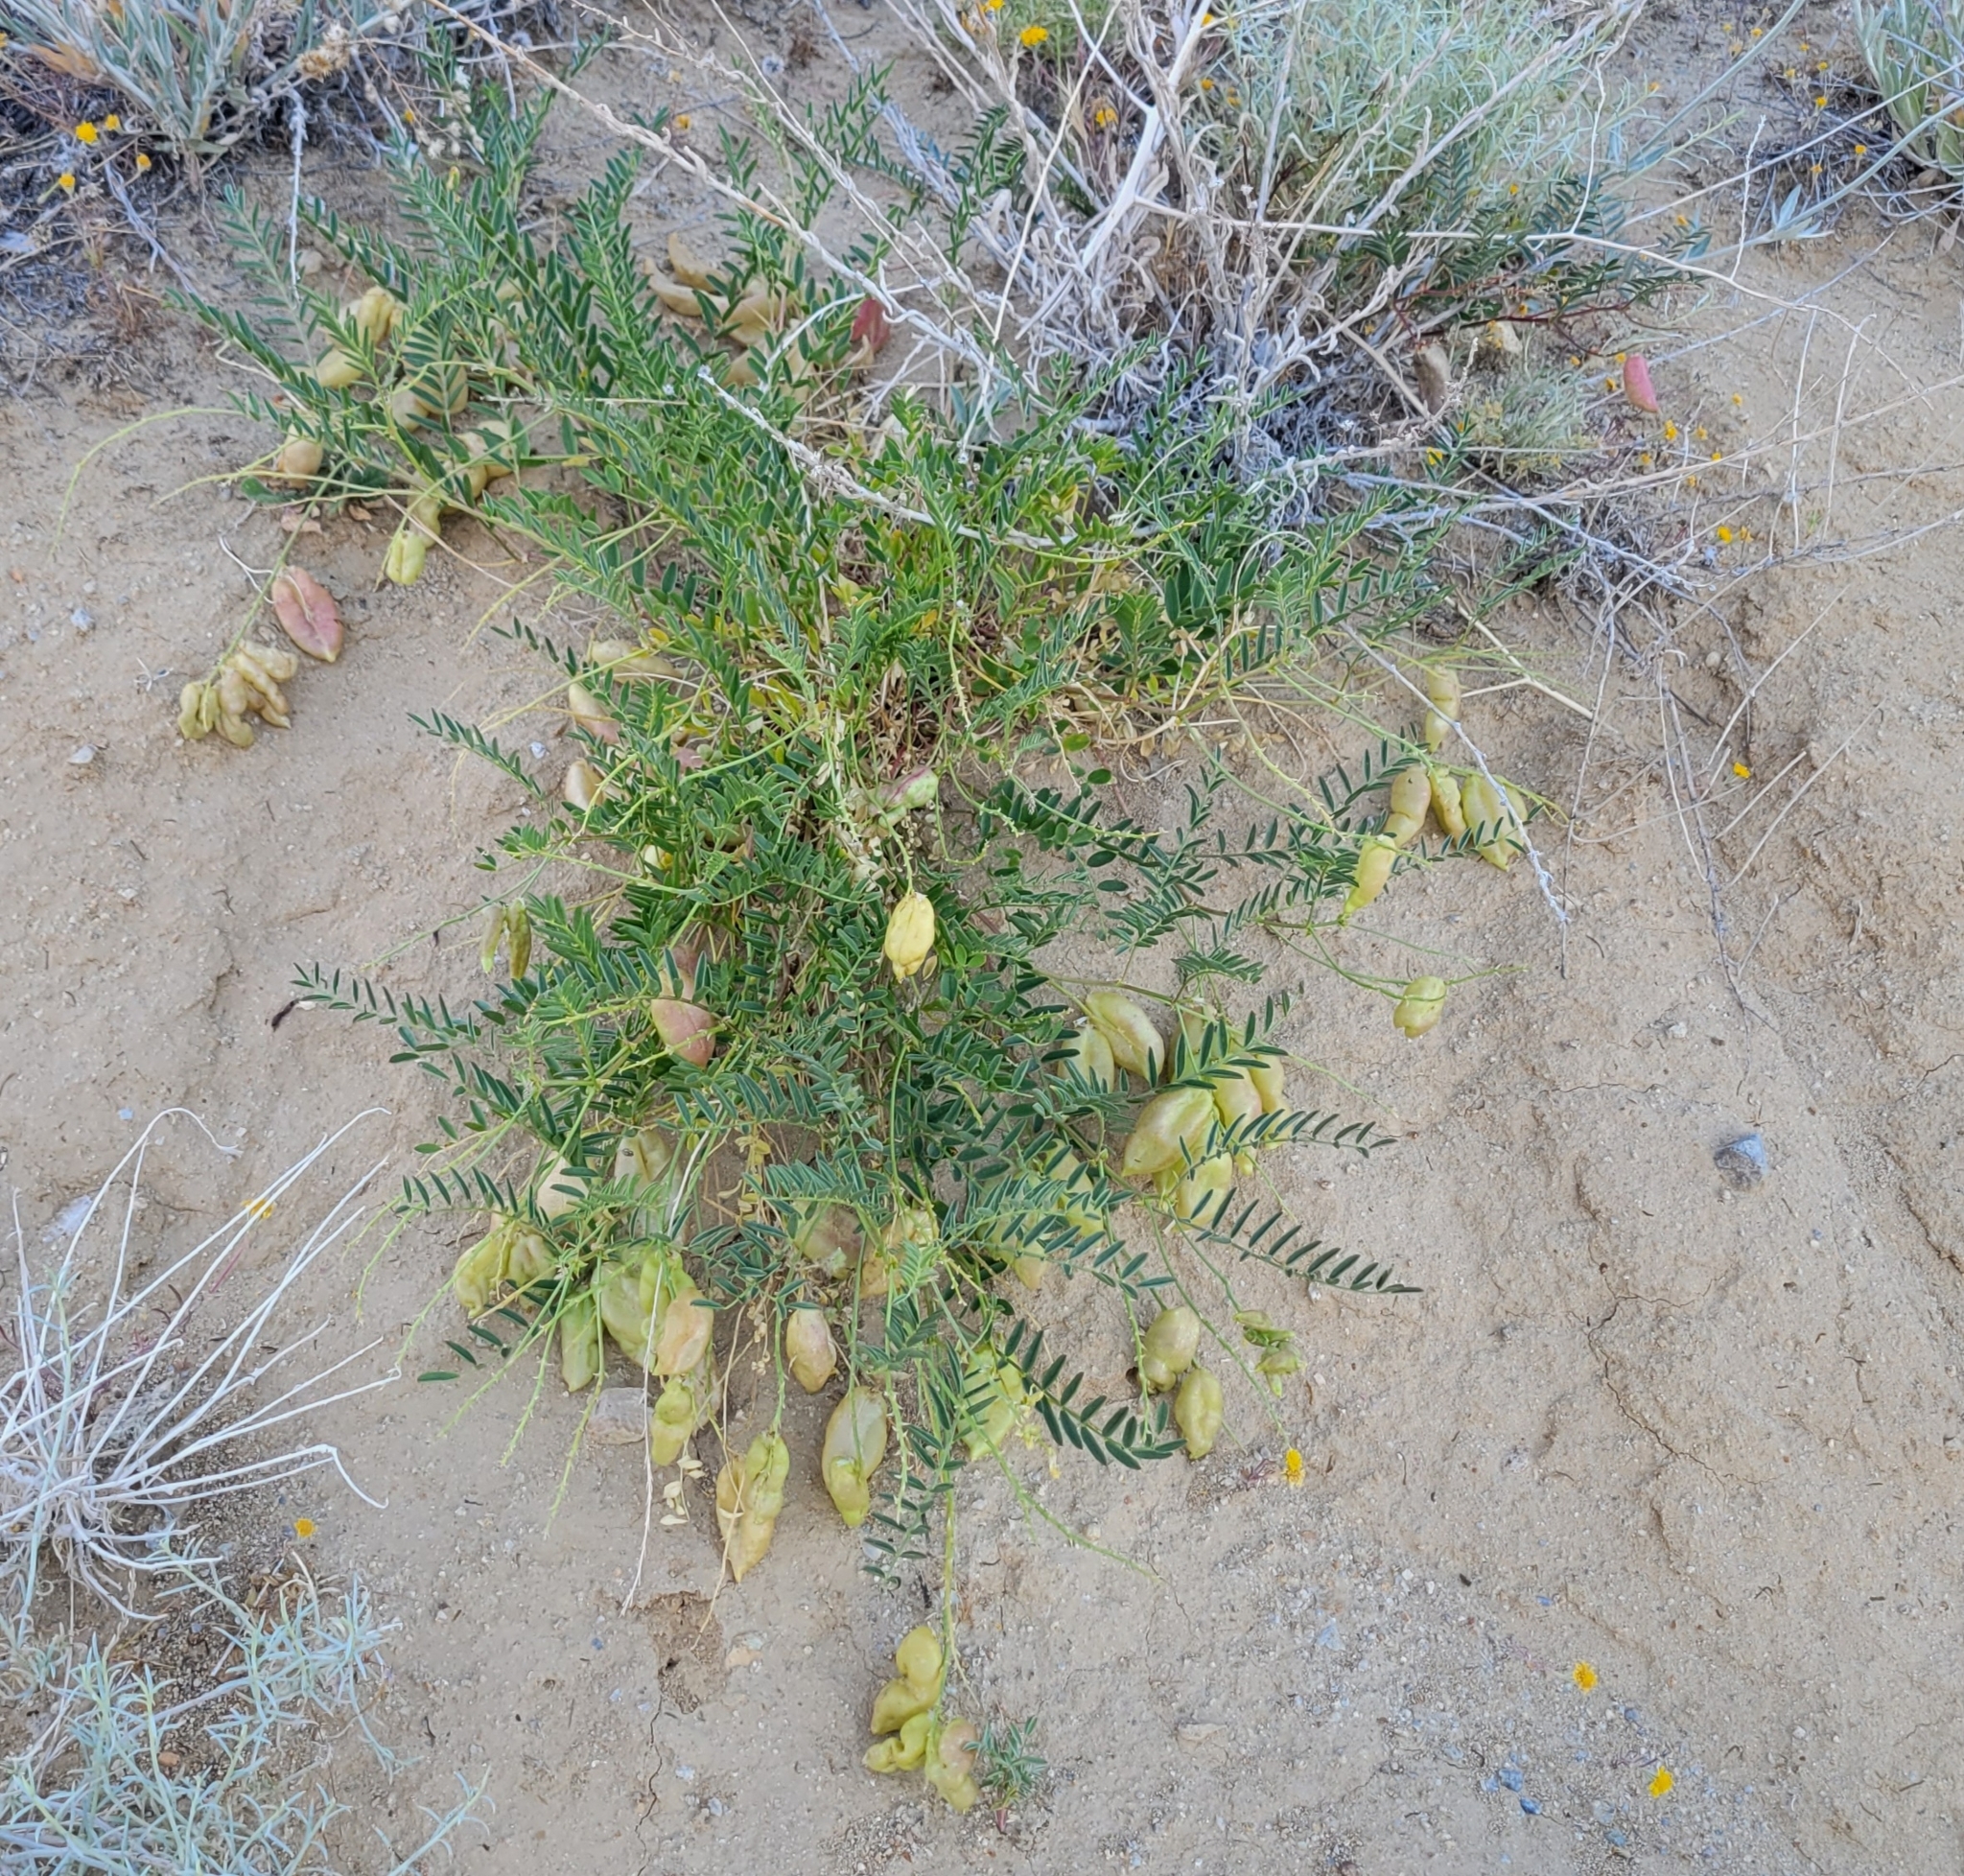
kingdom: Plantae
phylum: Tracheophyta
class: Magnoliopsida
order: Fabales
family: Fabaceae
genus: Astragalus
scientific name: Astragalus douglasii
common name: Jacumba milkvetch
